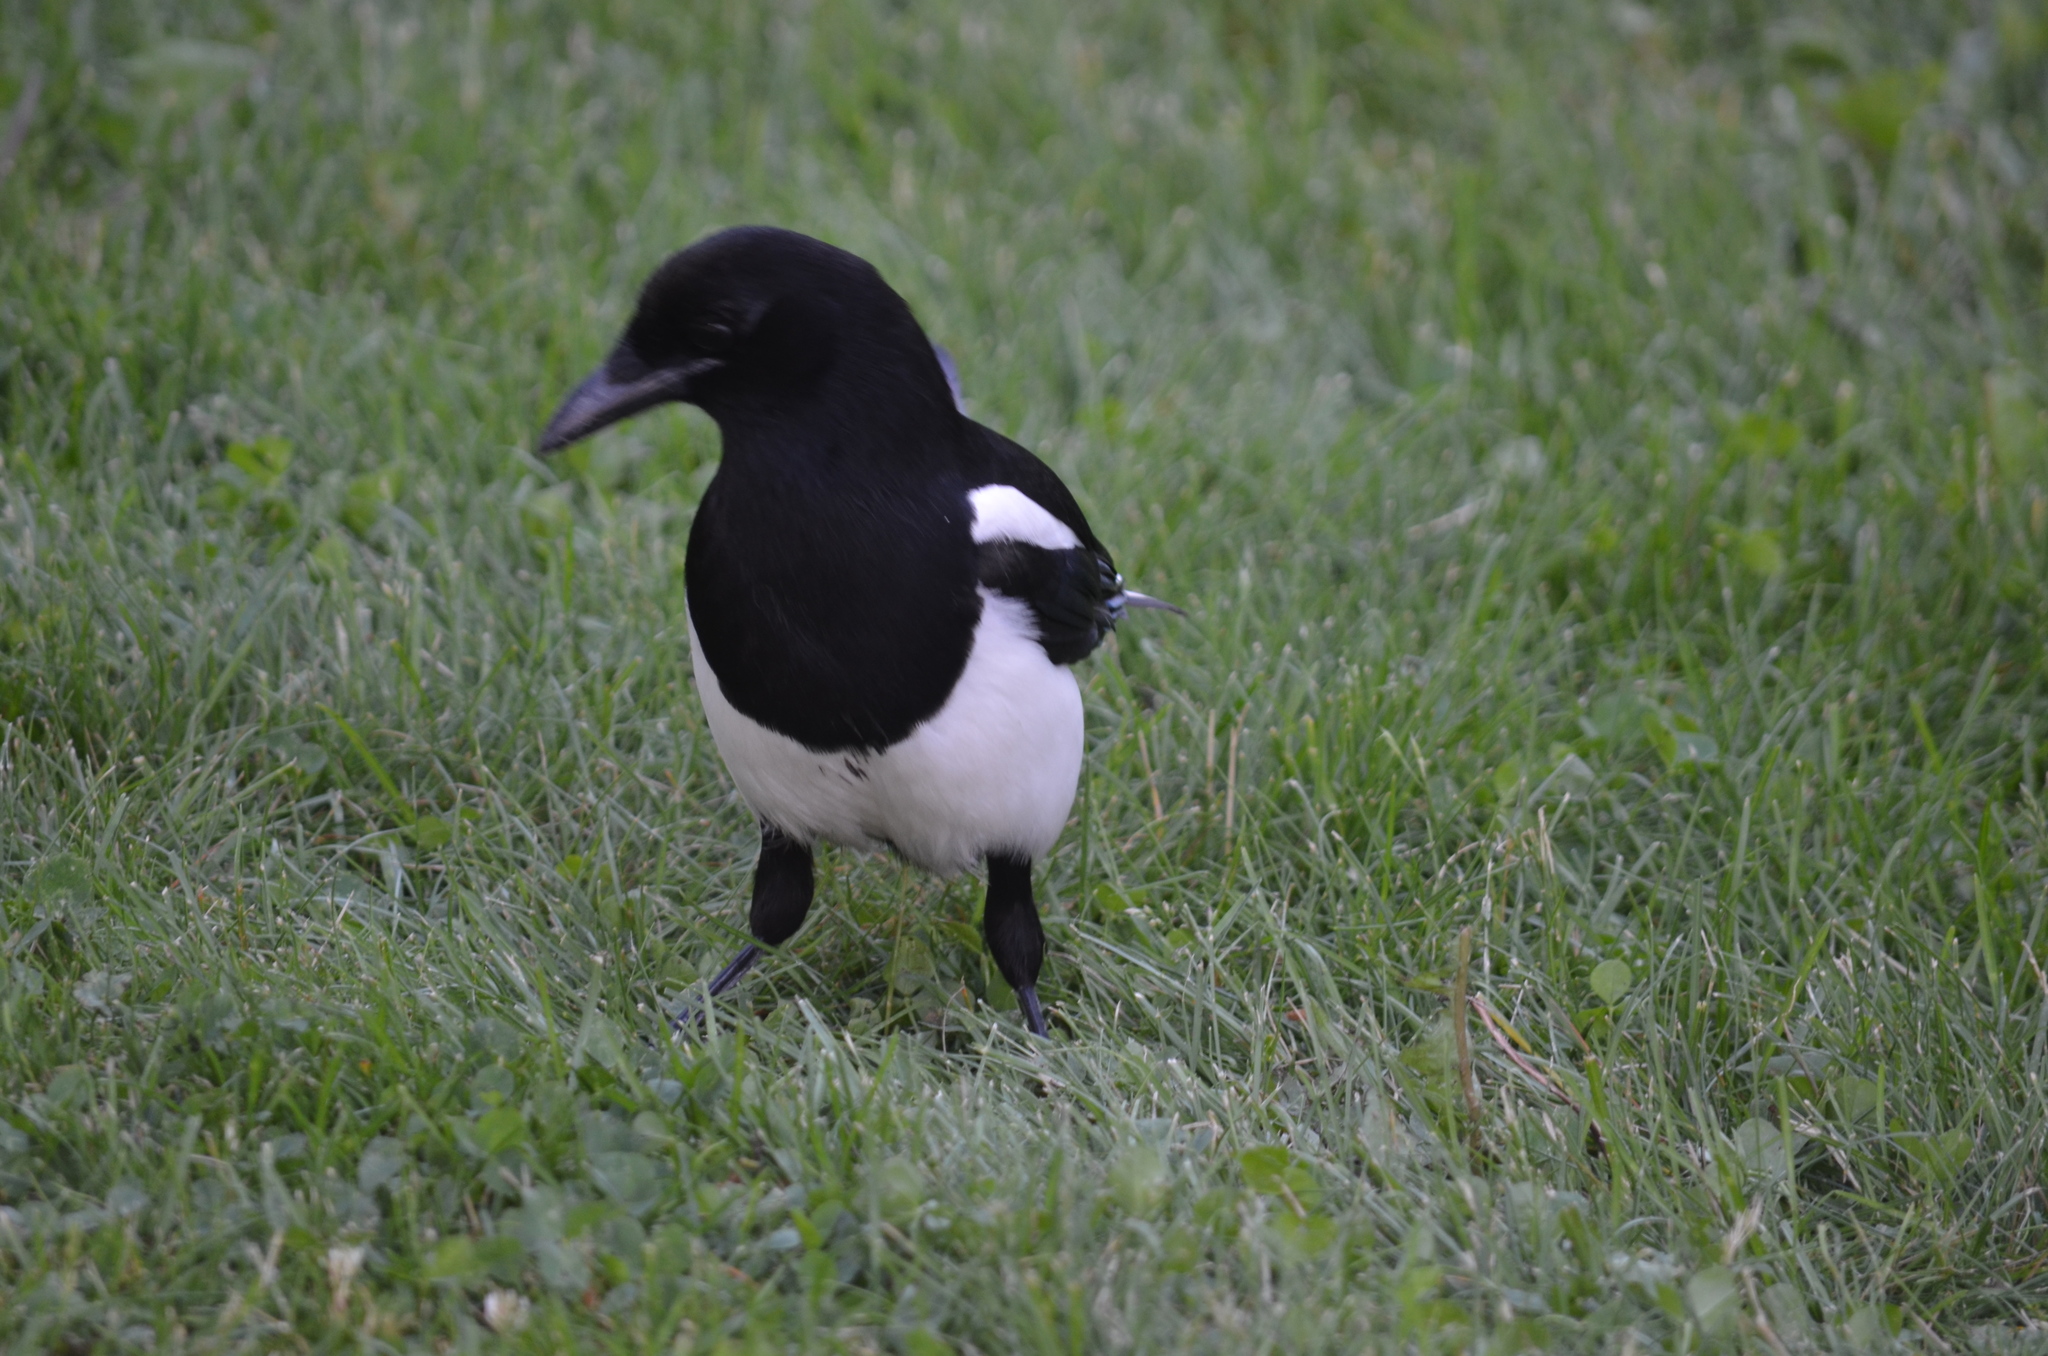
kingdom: Animalia
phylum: Chordata
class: Aves
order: Passeriformes
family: Corvidae
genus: Pica
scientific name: Pica hudsonia
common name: Black-billed magpie
